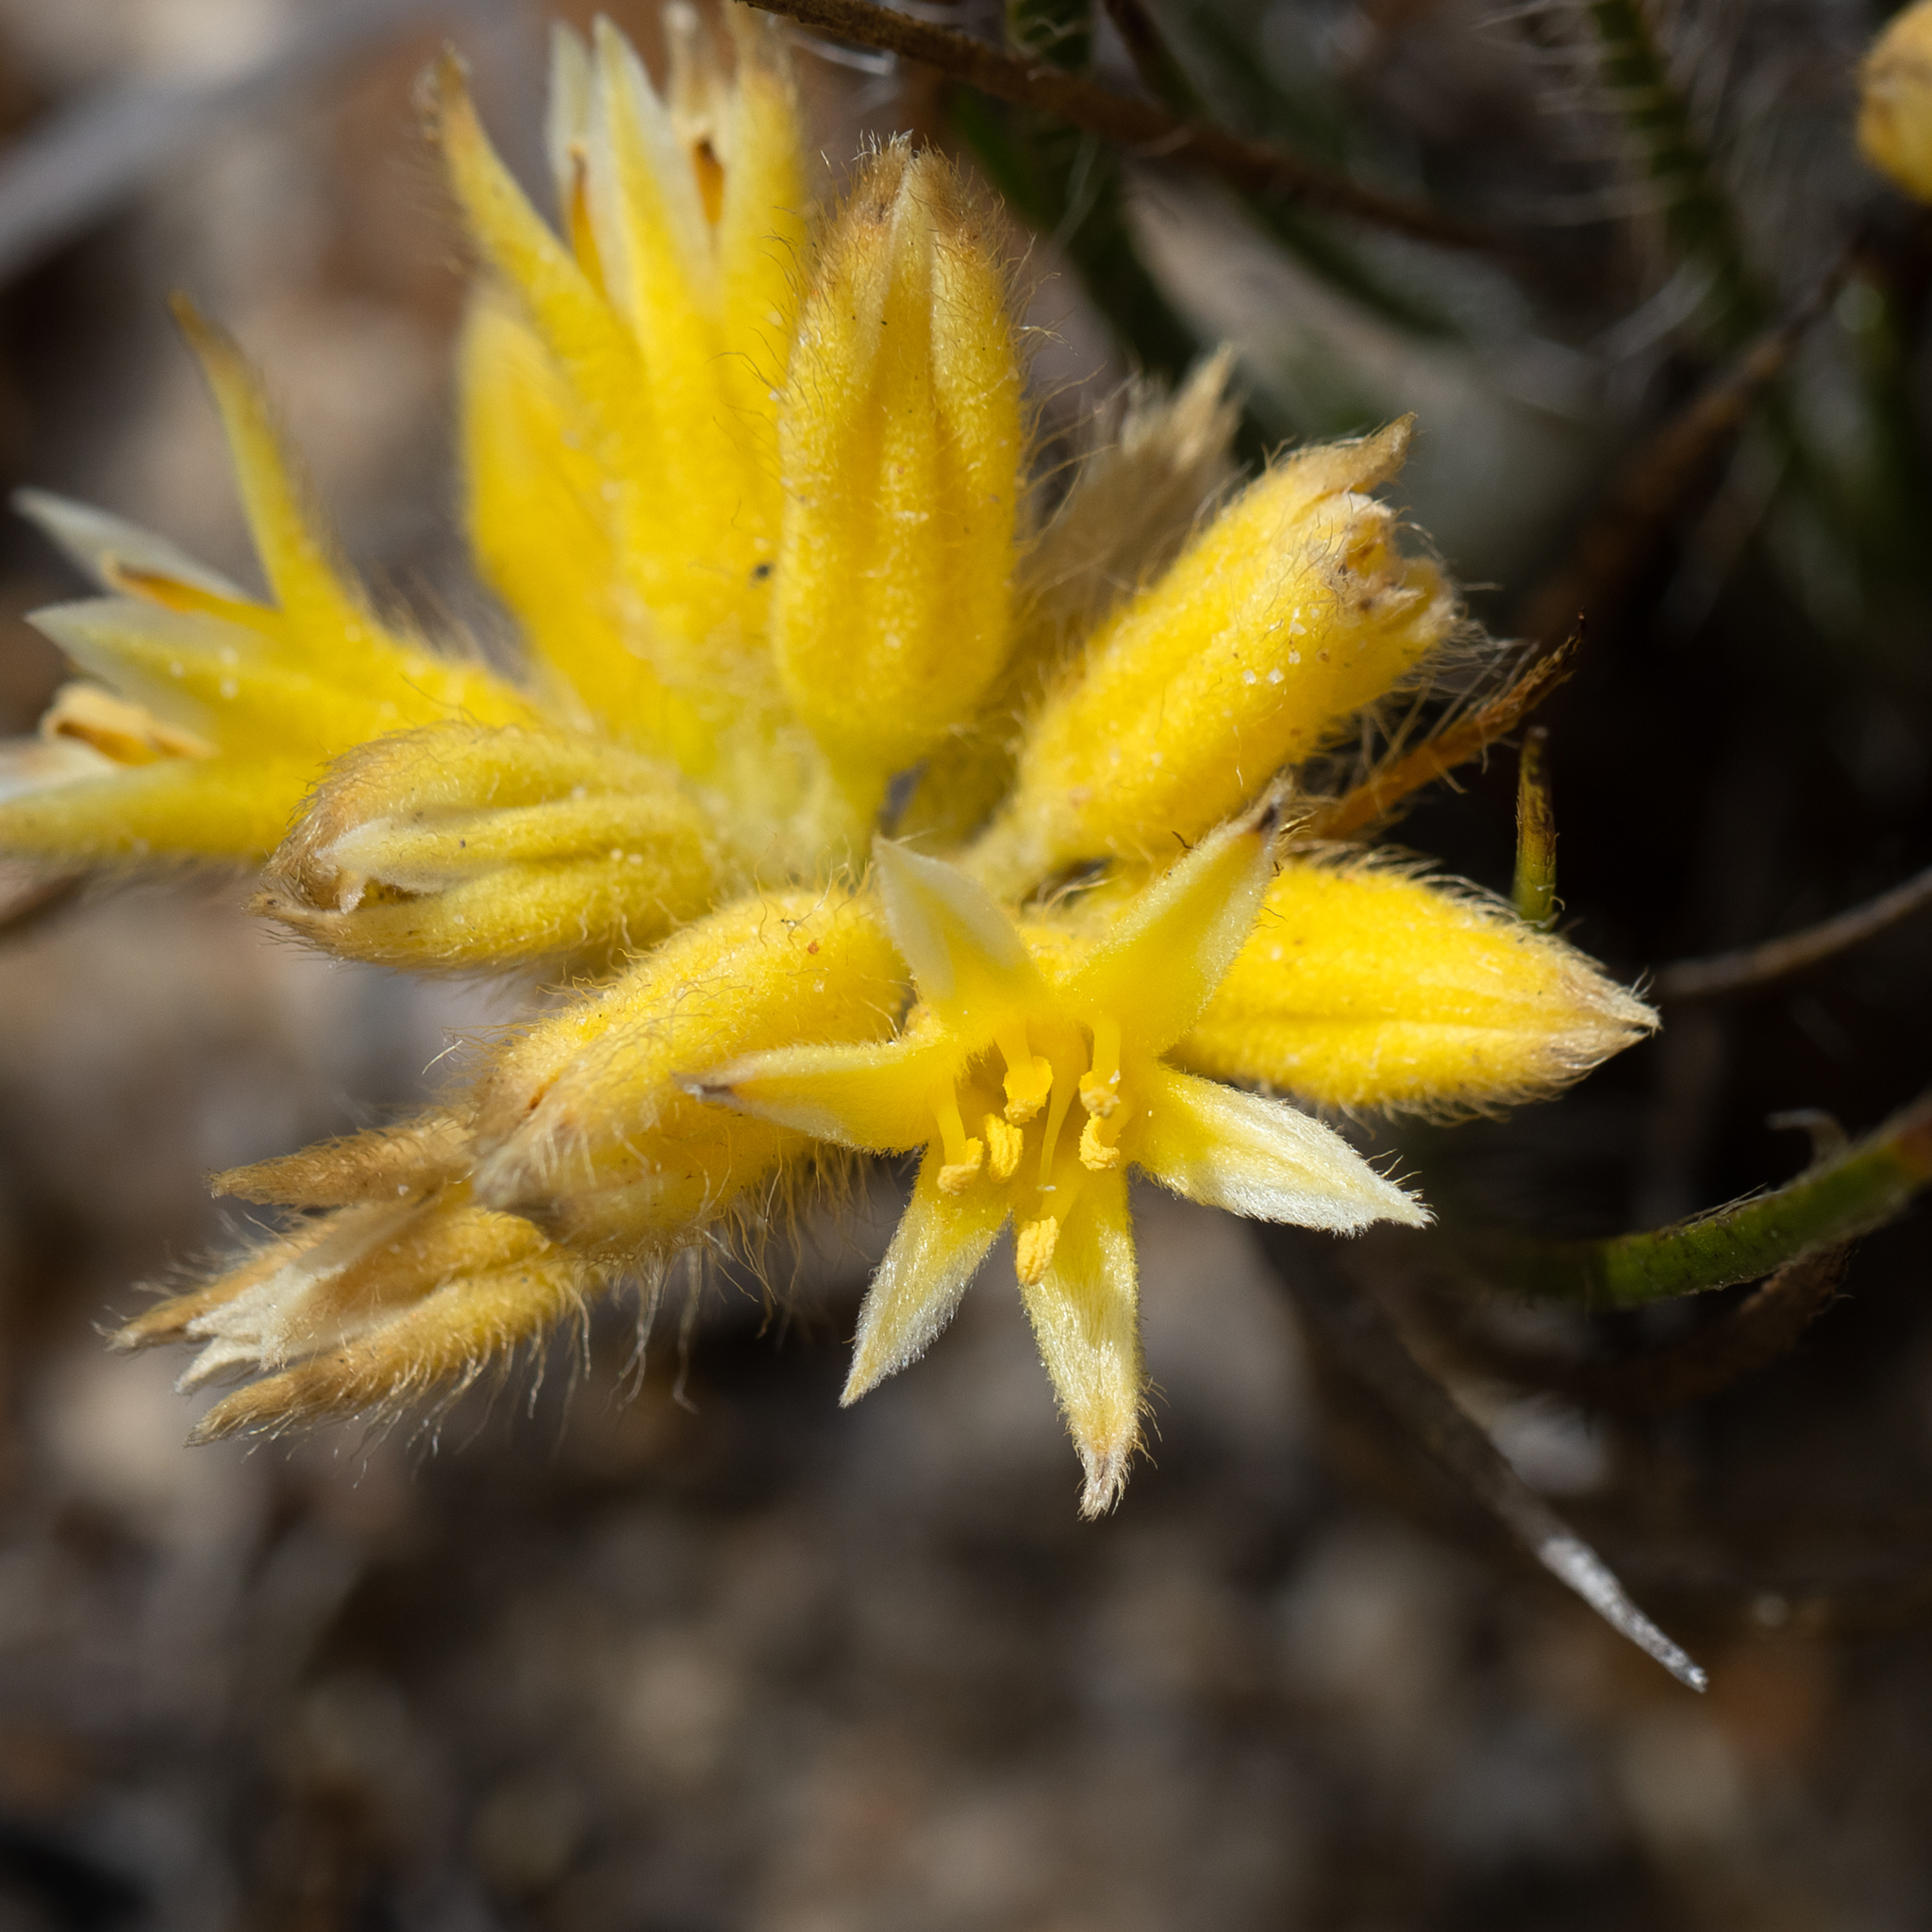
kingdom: Plantae
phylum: Tracheophyta
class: Liliopsida
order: Commelinales
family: Haemodoraceae
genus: Conostylis
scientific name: Conostylis setigera
